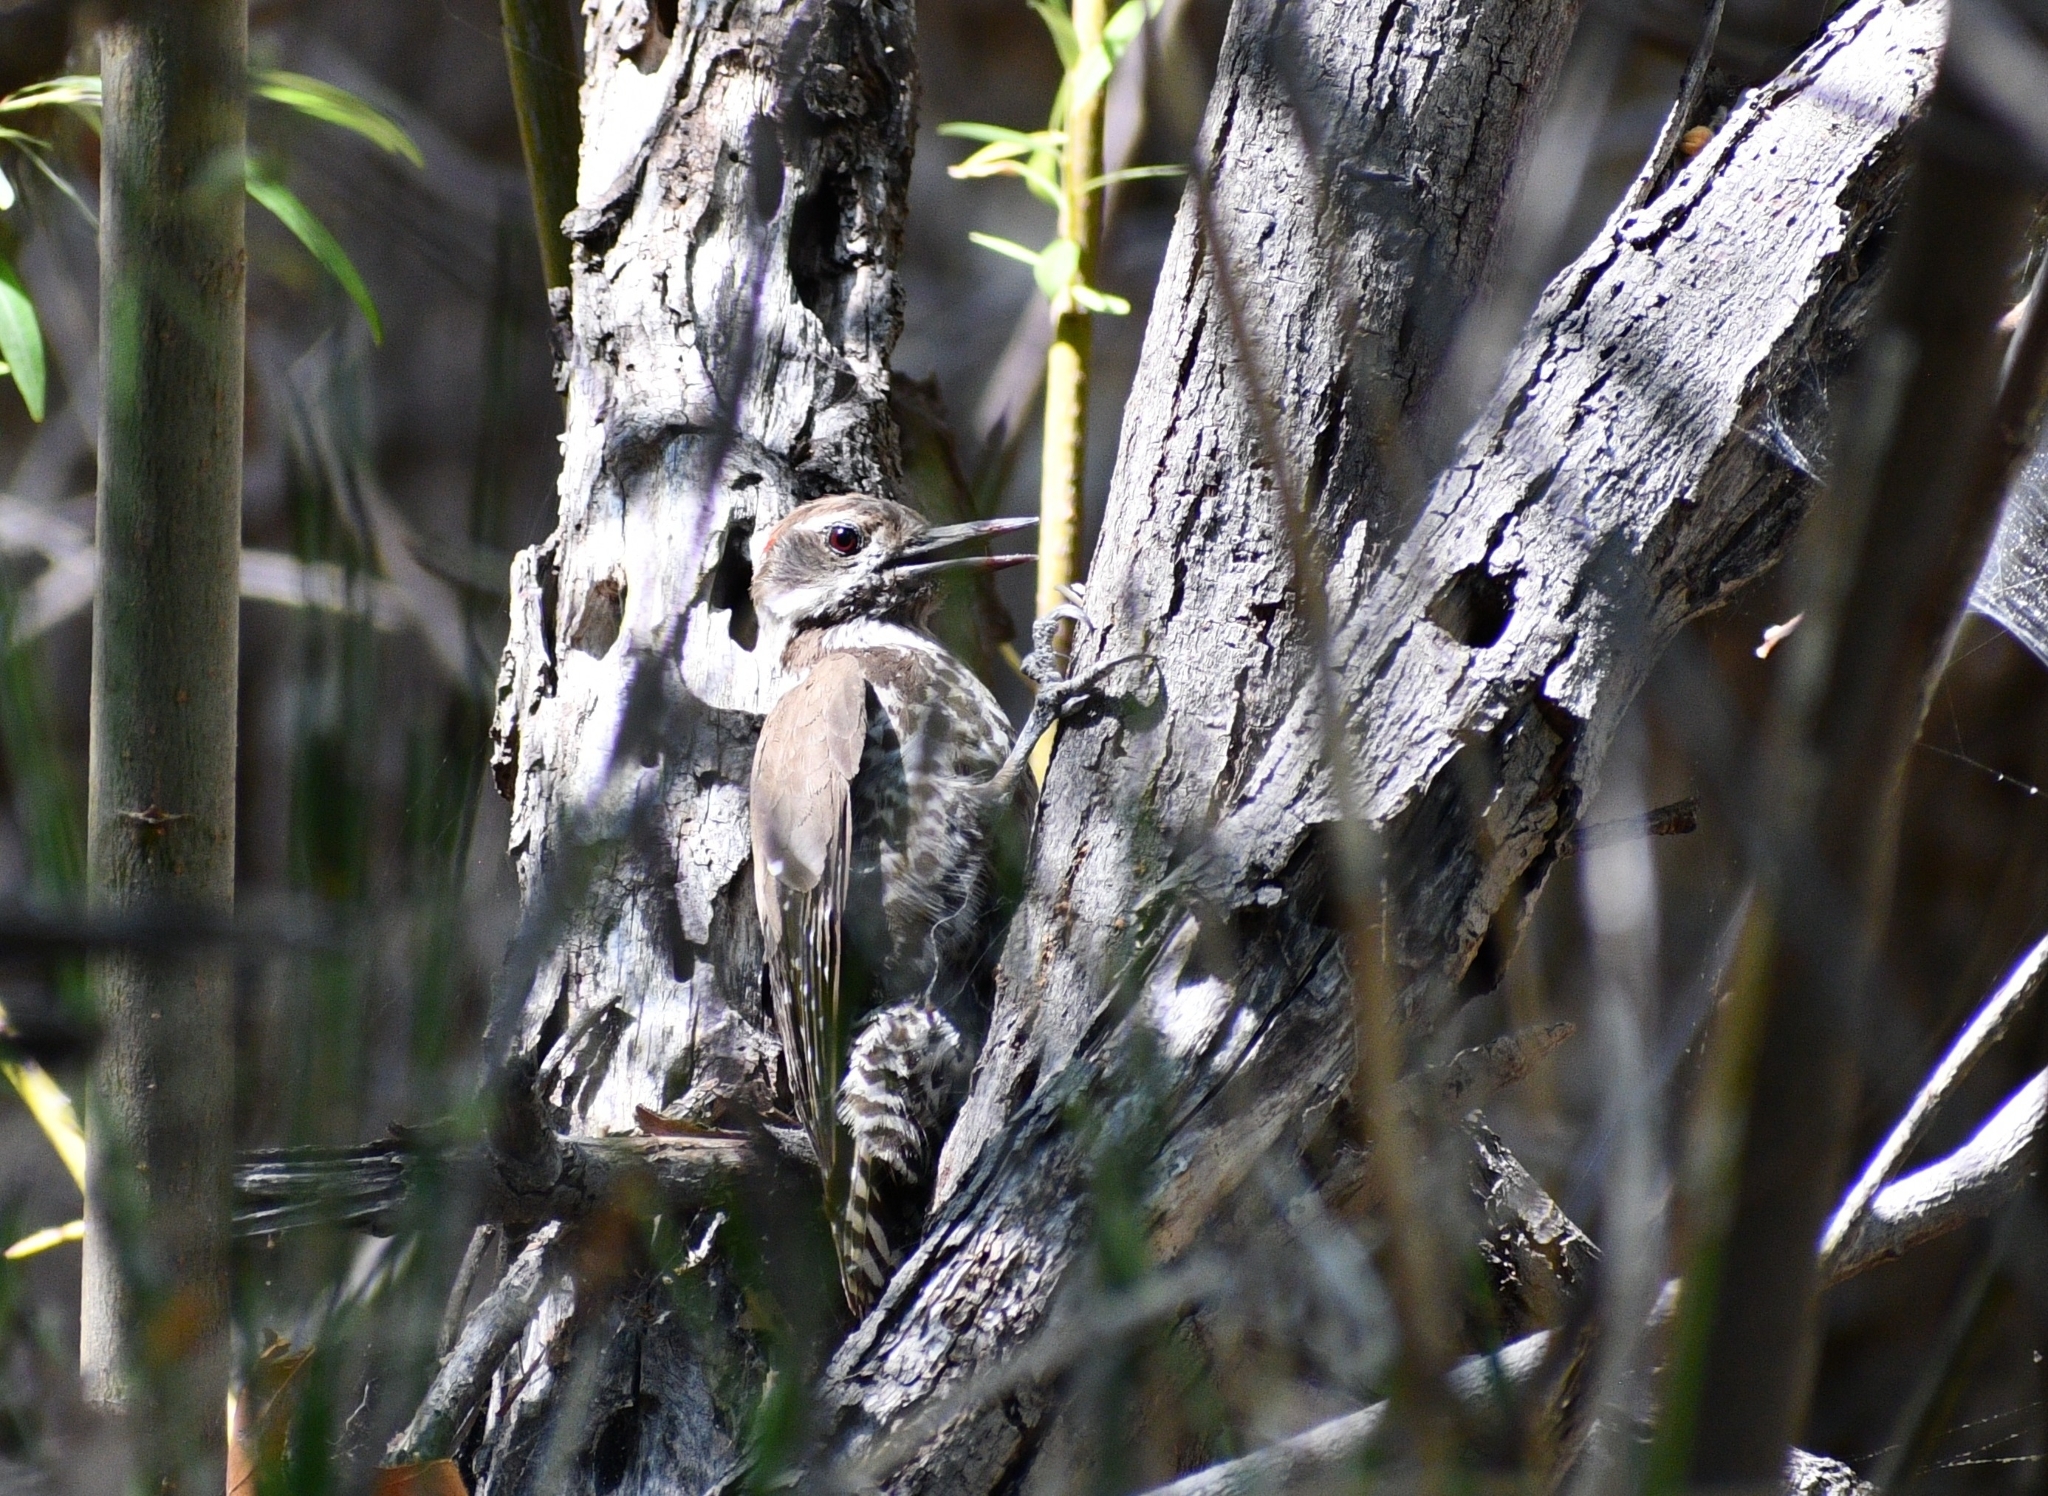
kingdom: Animalia
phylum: Chordata
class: Aves
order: Piciformes
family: Picidae
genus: Leuconotopicus
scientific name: Leuconotopicus arizonae
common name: Arizona woodpecker
